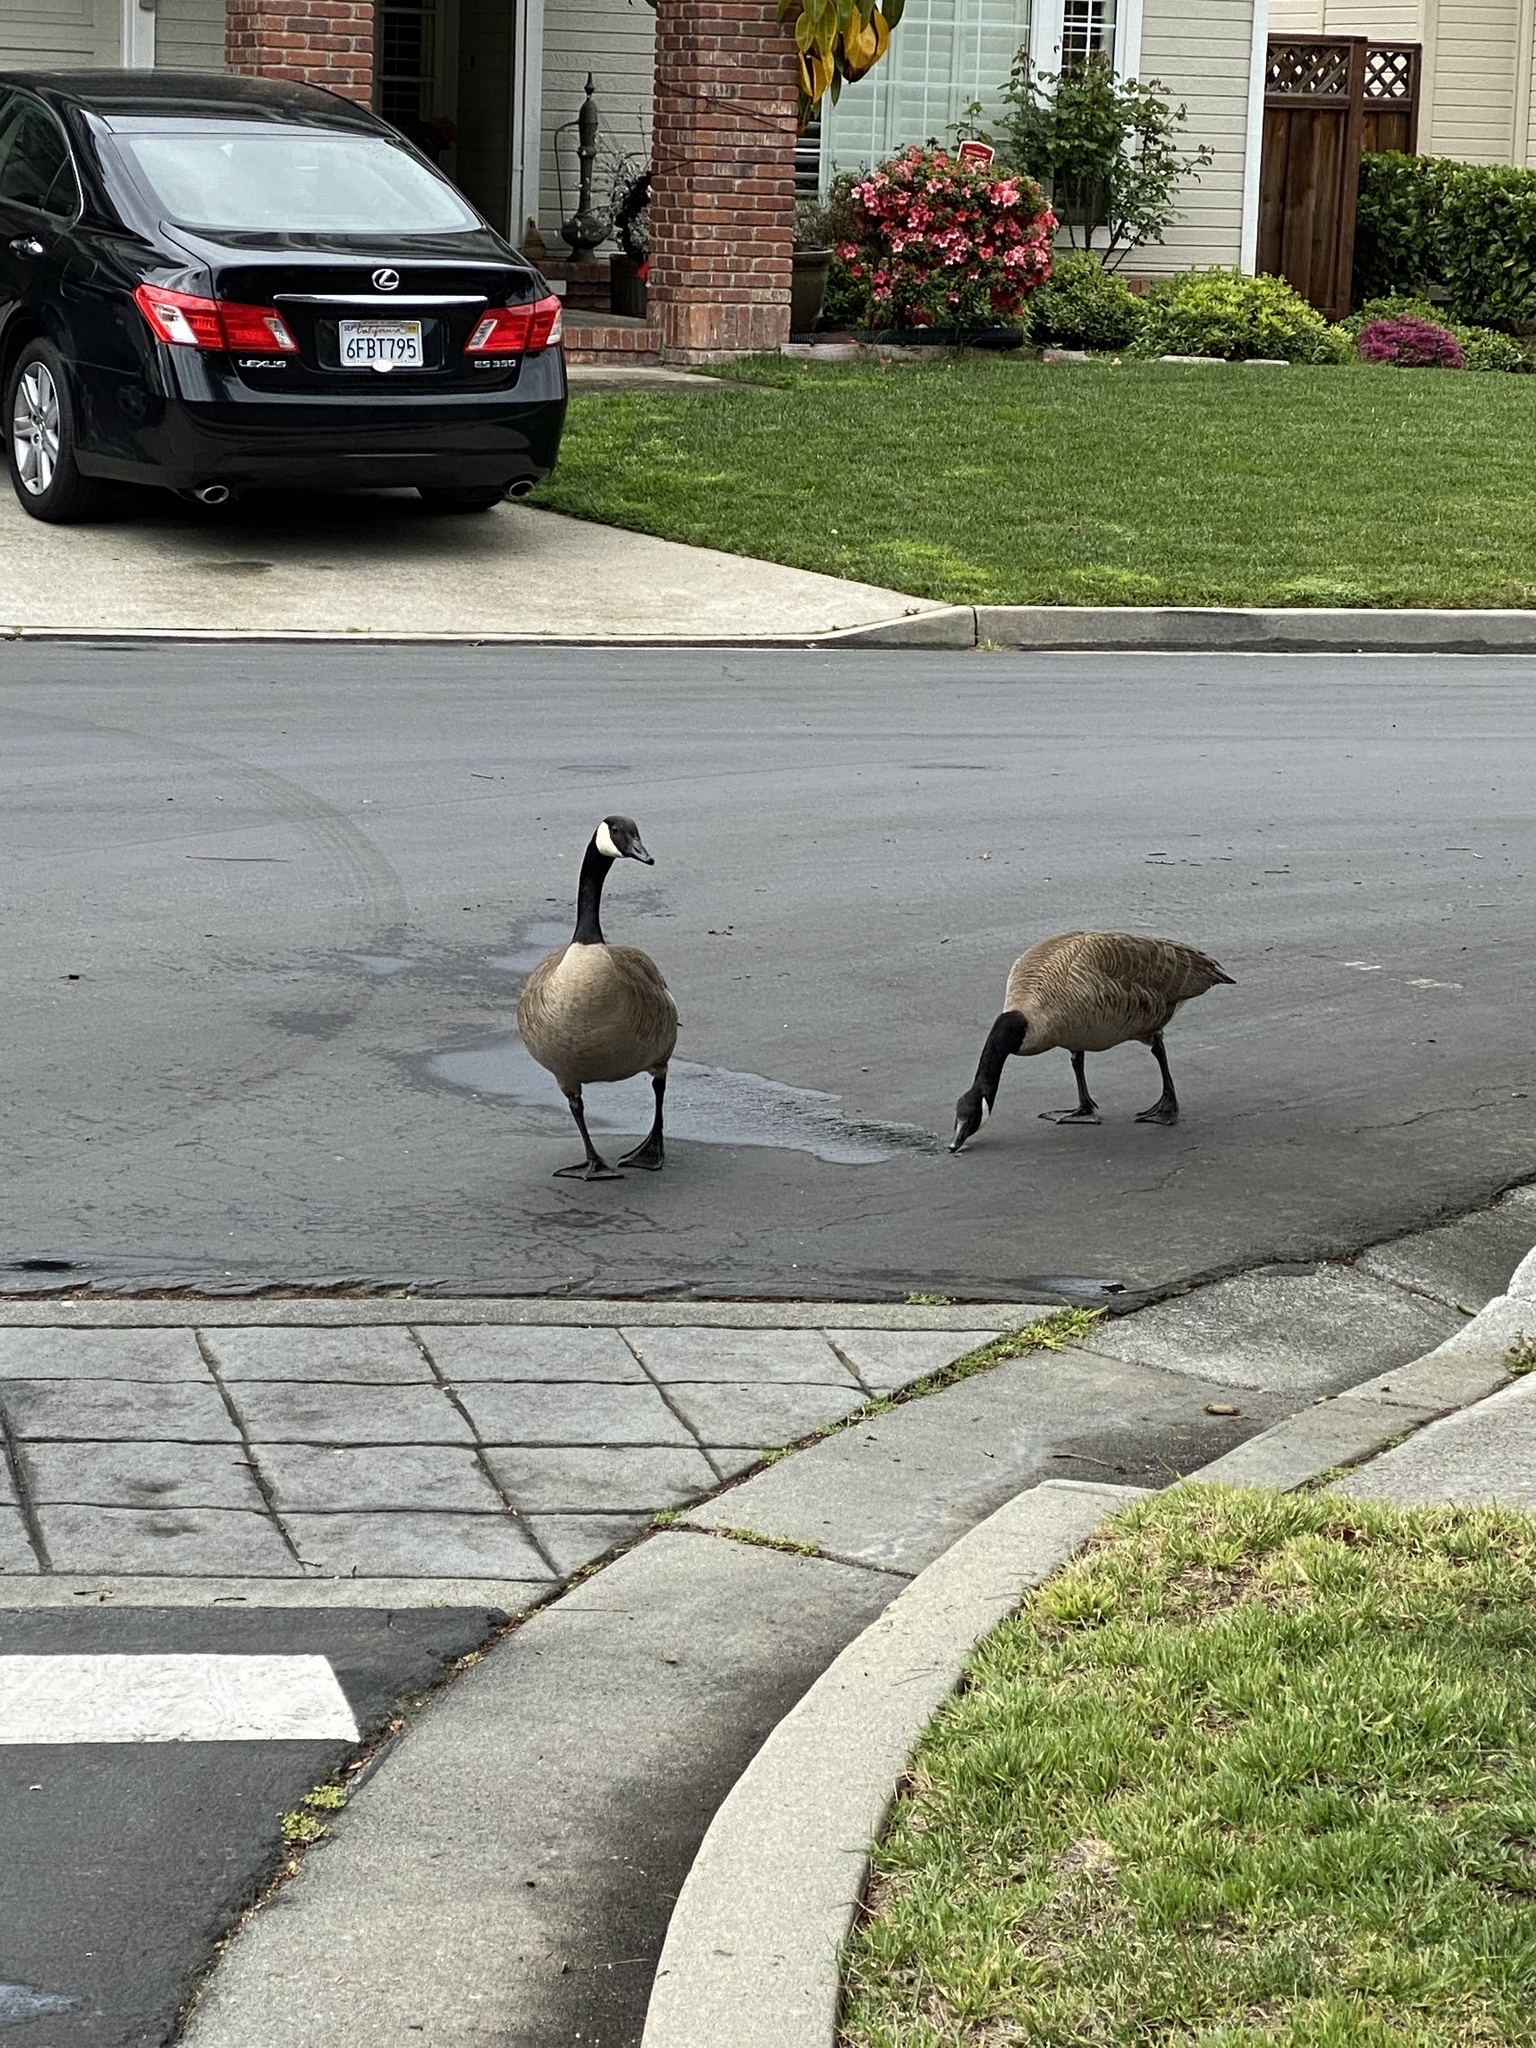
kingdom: Animalia
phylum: Chordata
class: Aves
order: Anseriformes
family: Anatidae
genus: Branta
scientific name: Branta canadensis
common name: Canada goose
